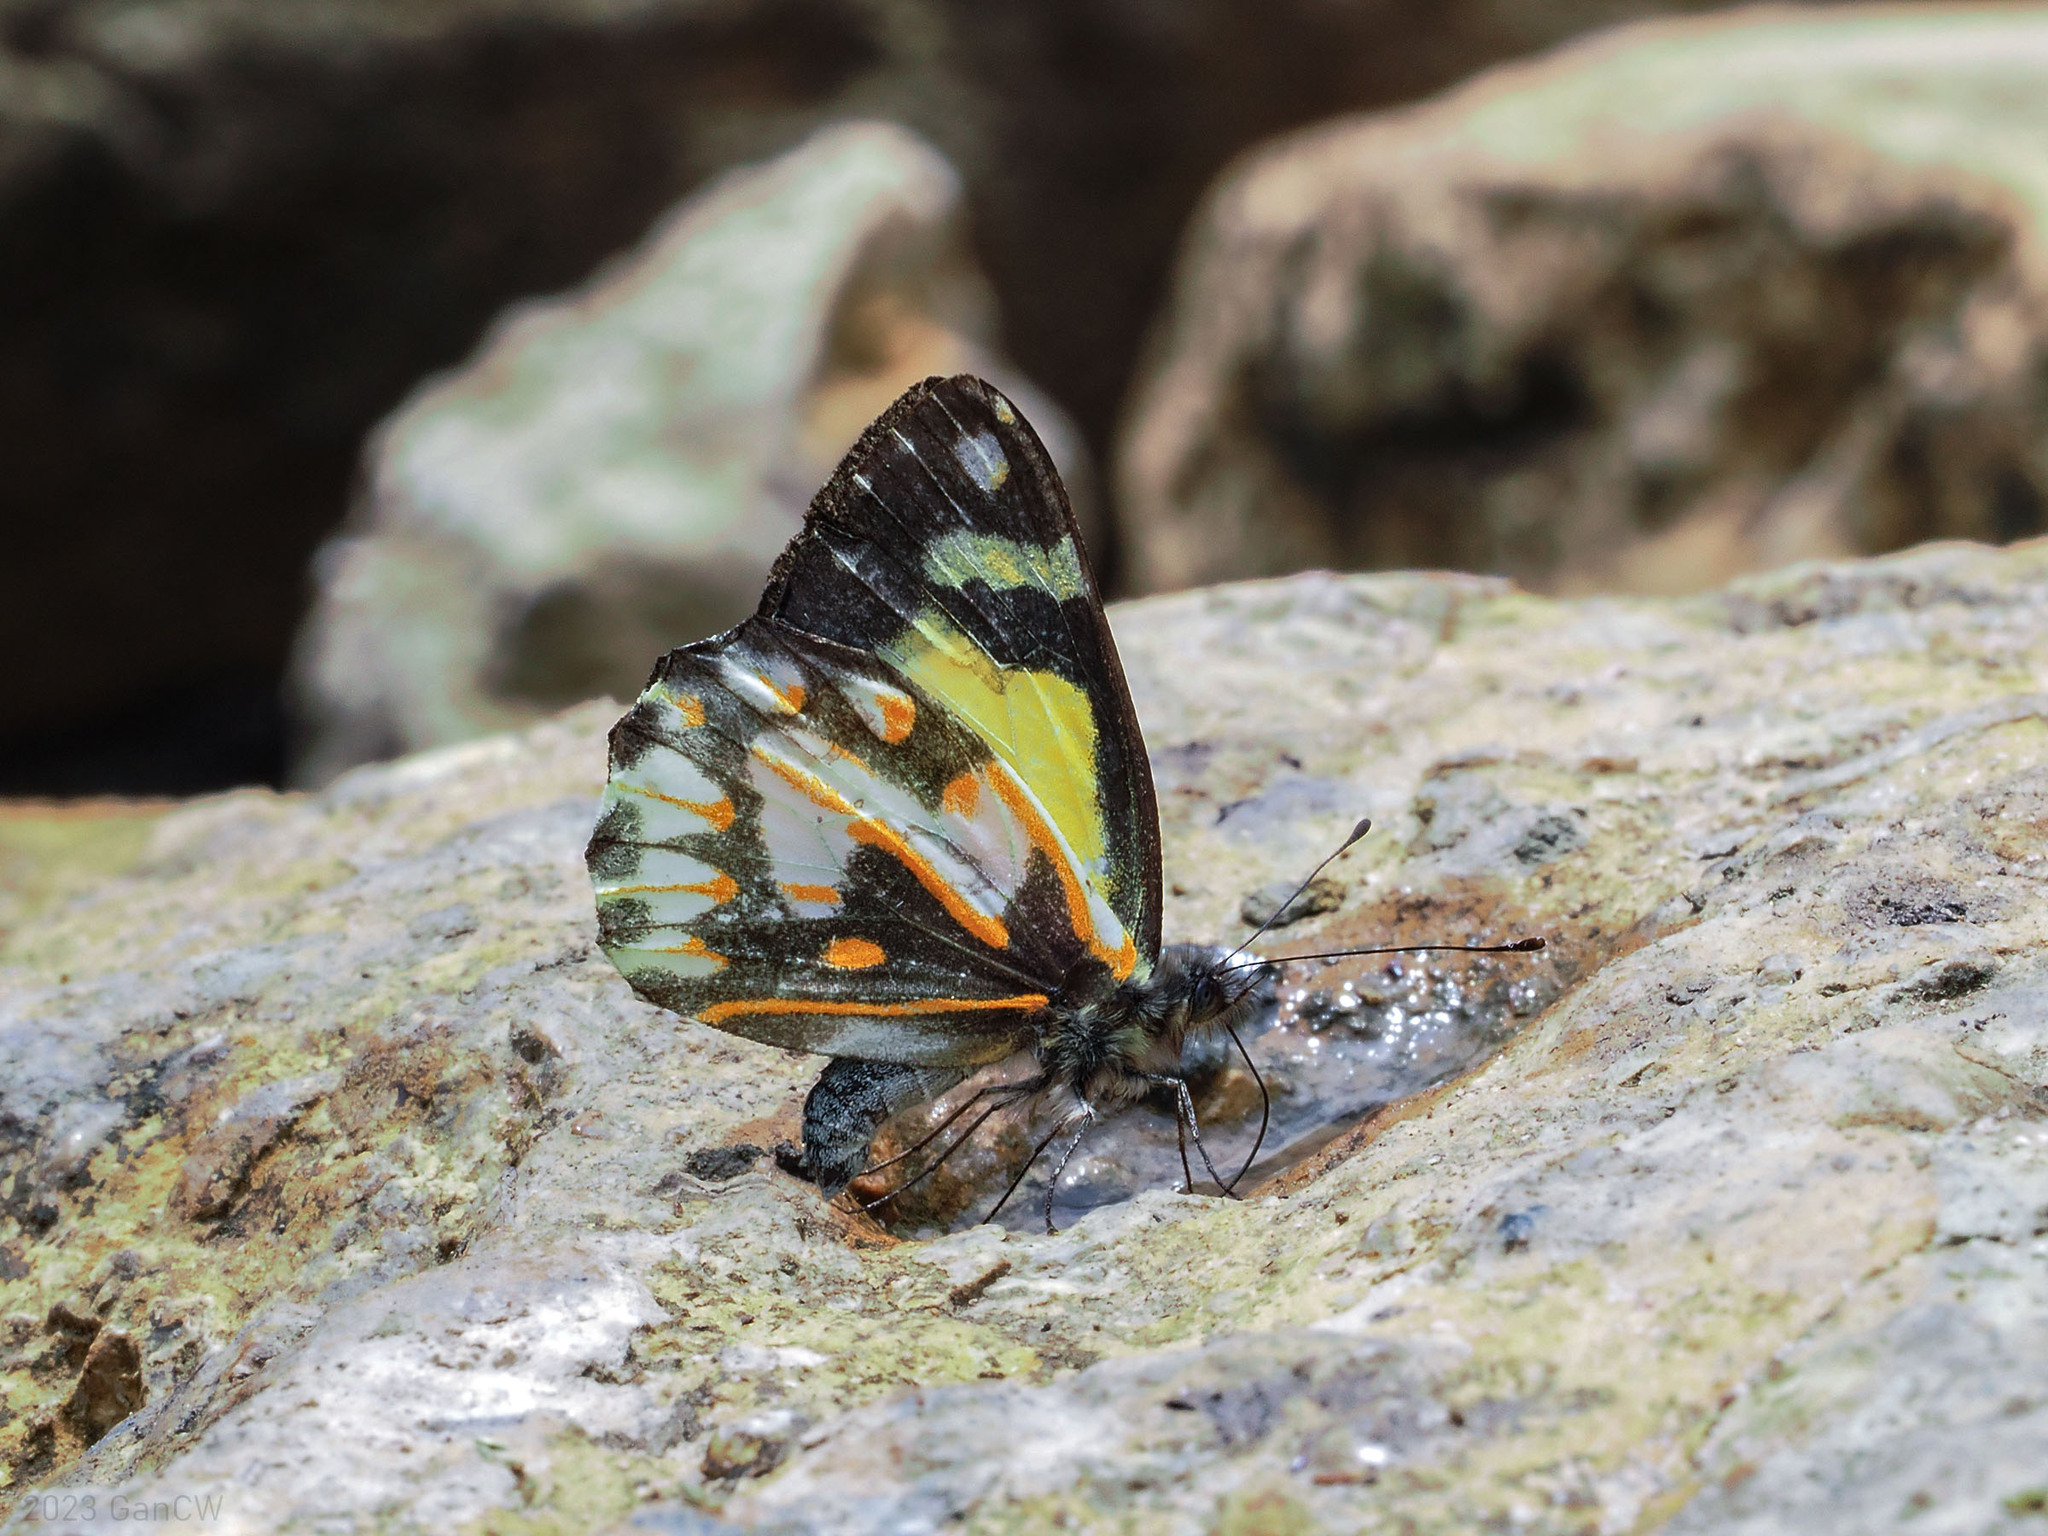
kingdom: Animalia
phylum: Arthropoda
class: Insecta
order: Lepidoptera
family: Pieridae
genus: Delias
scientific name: Delias catisa
